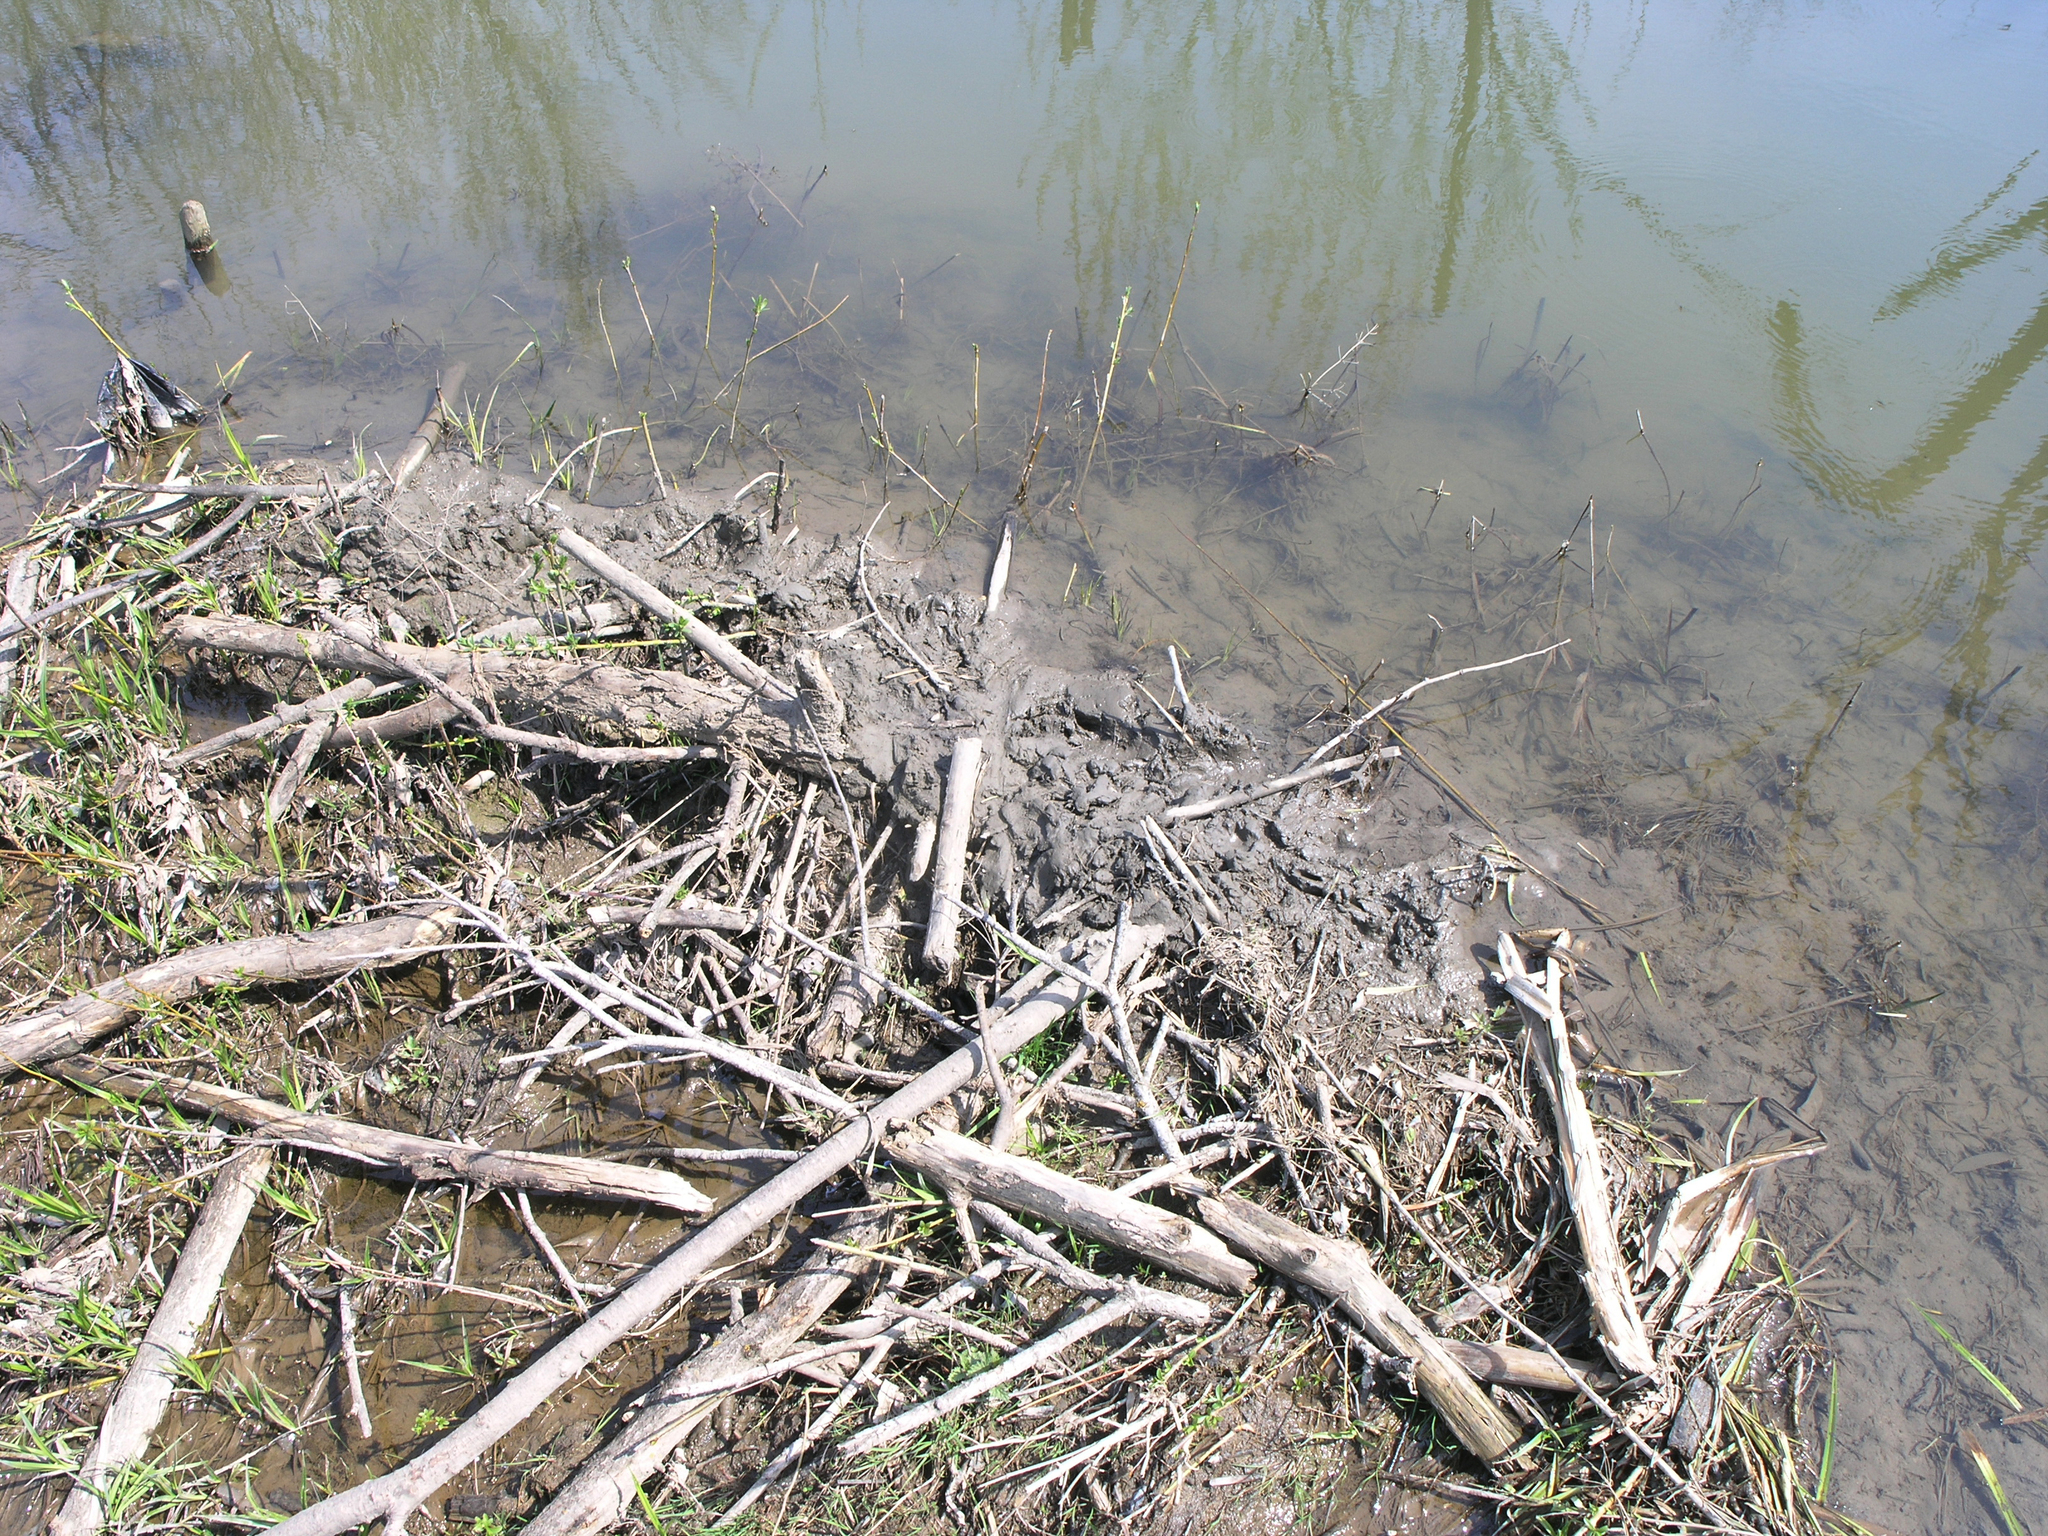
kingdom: Animalia
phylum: Chordata
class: Mammalia
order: Rodentia
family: Castoridae
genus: Castor
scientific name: Castor fiber
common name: Eurasian beaver
